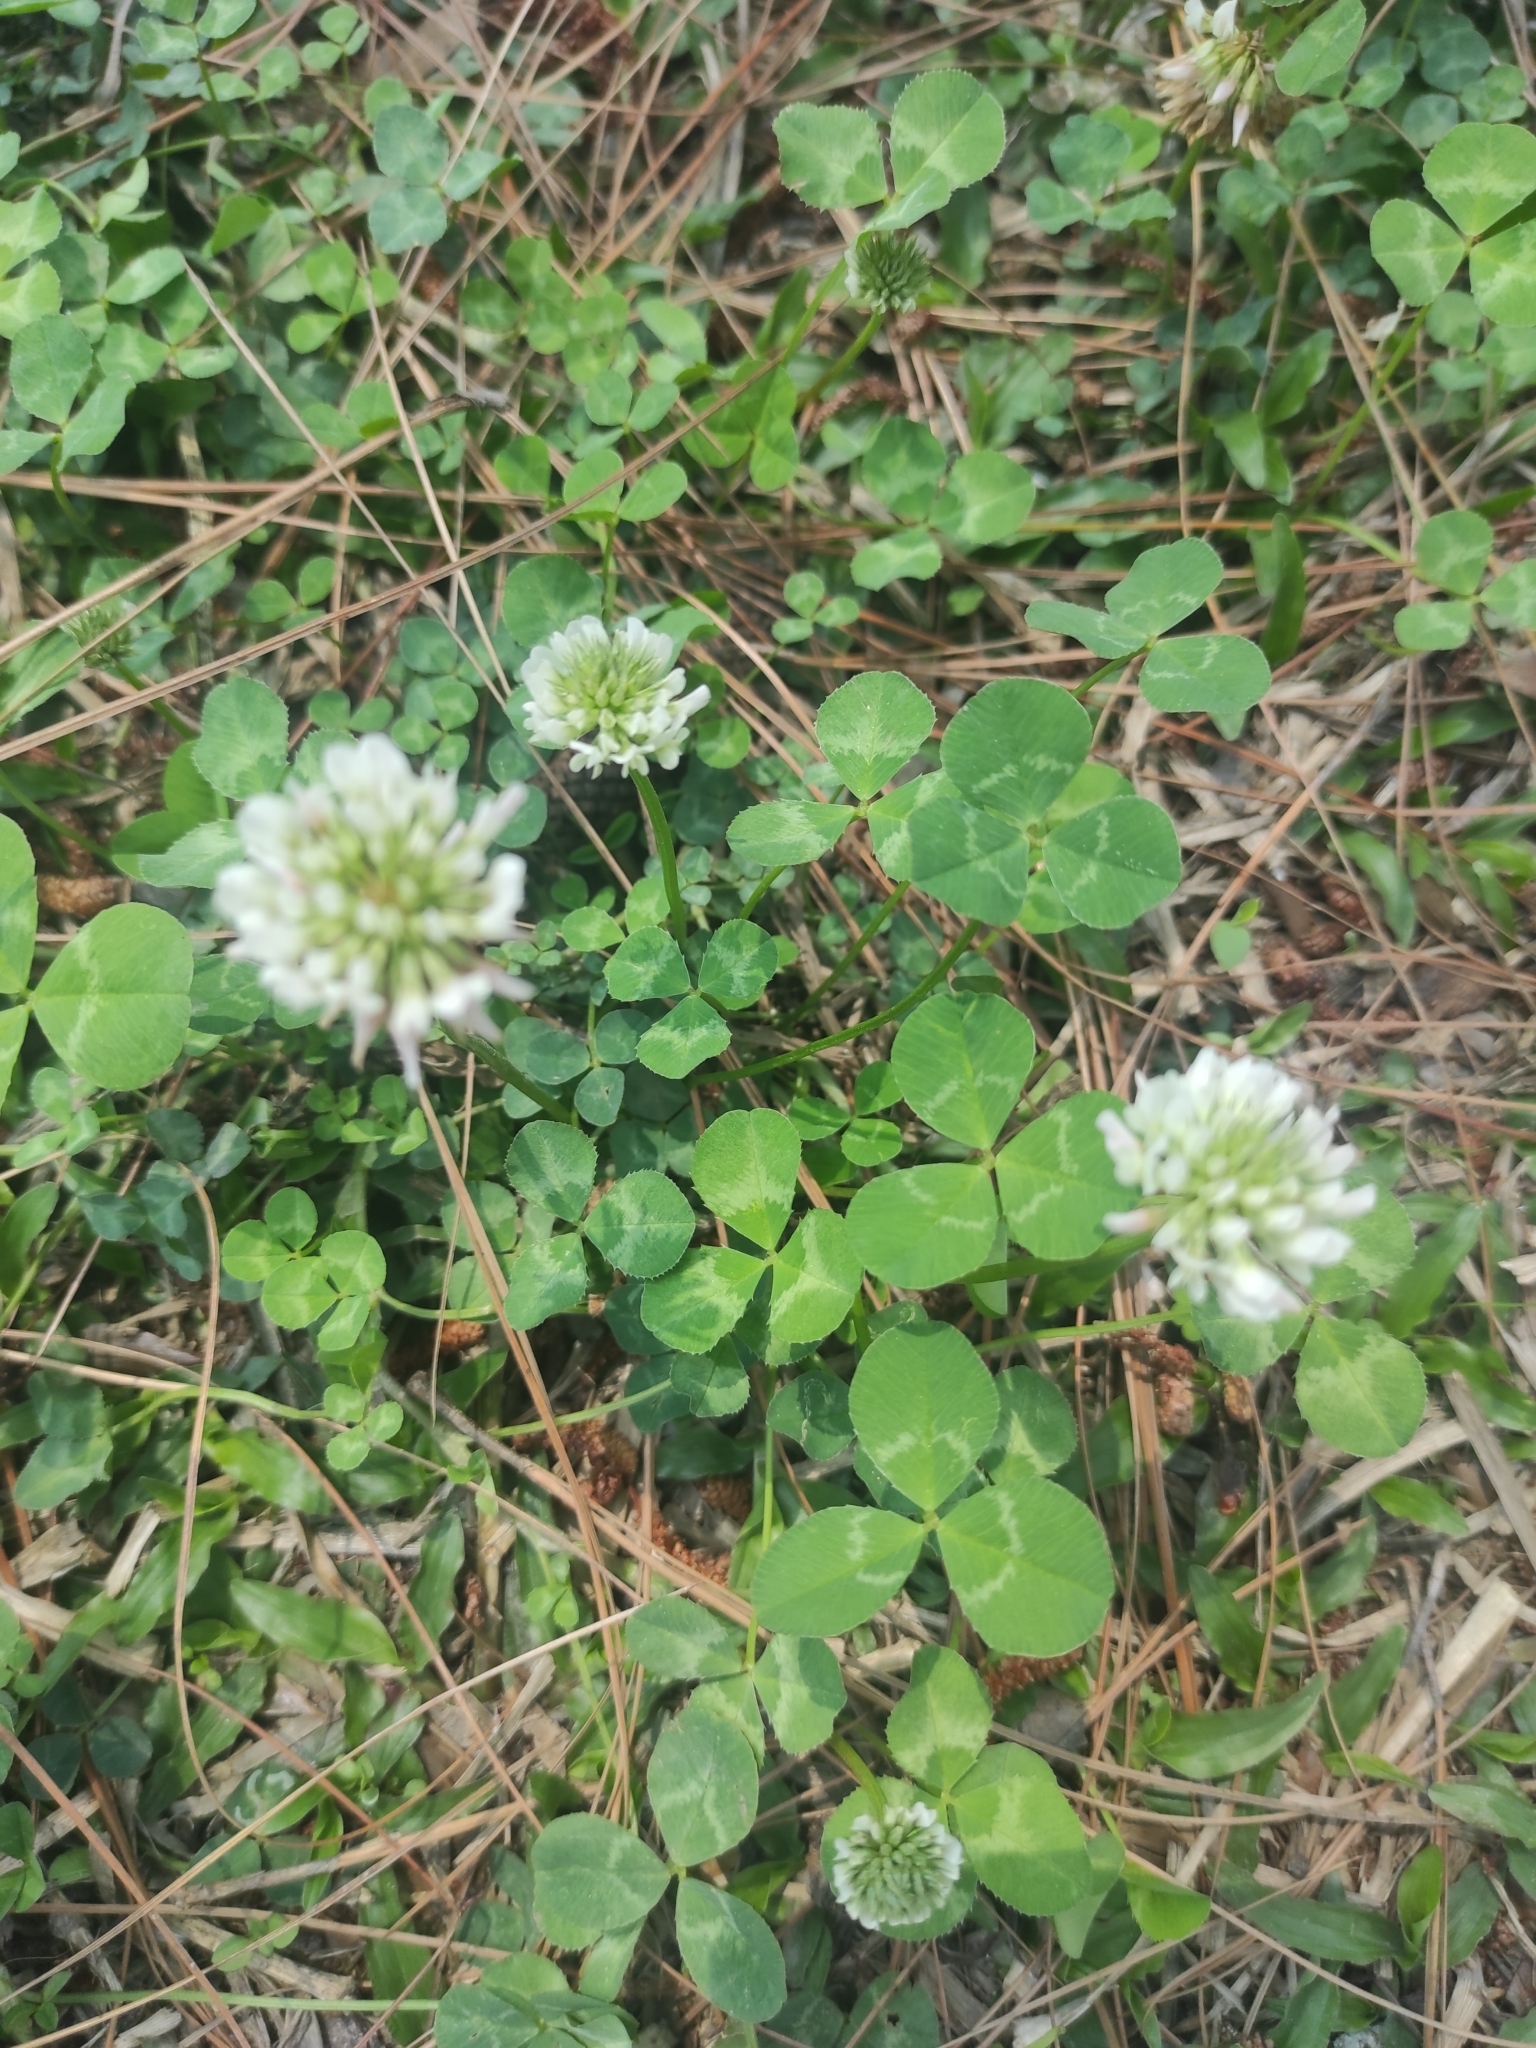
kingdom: Plantae
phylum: Tracheophyta
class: Magnoliopsida
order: Fabales
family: Fabaceae
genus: Trifolium
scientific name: Trifolium repens
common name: White clover
